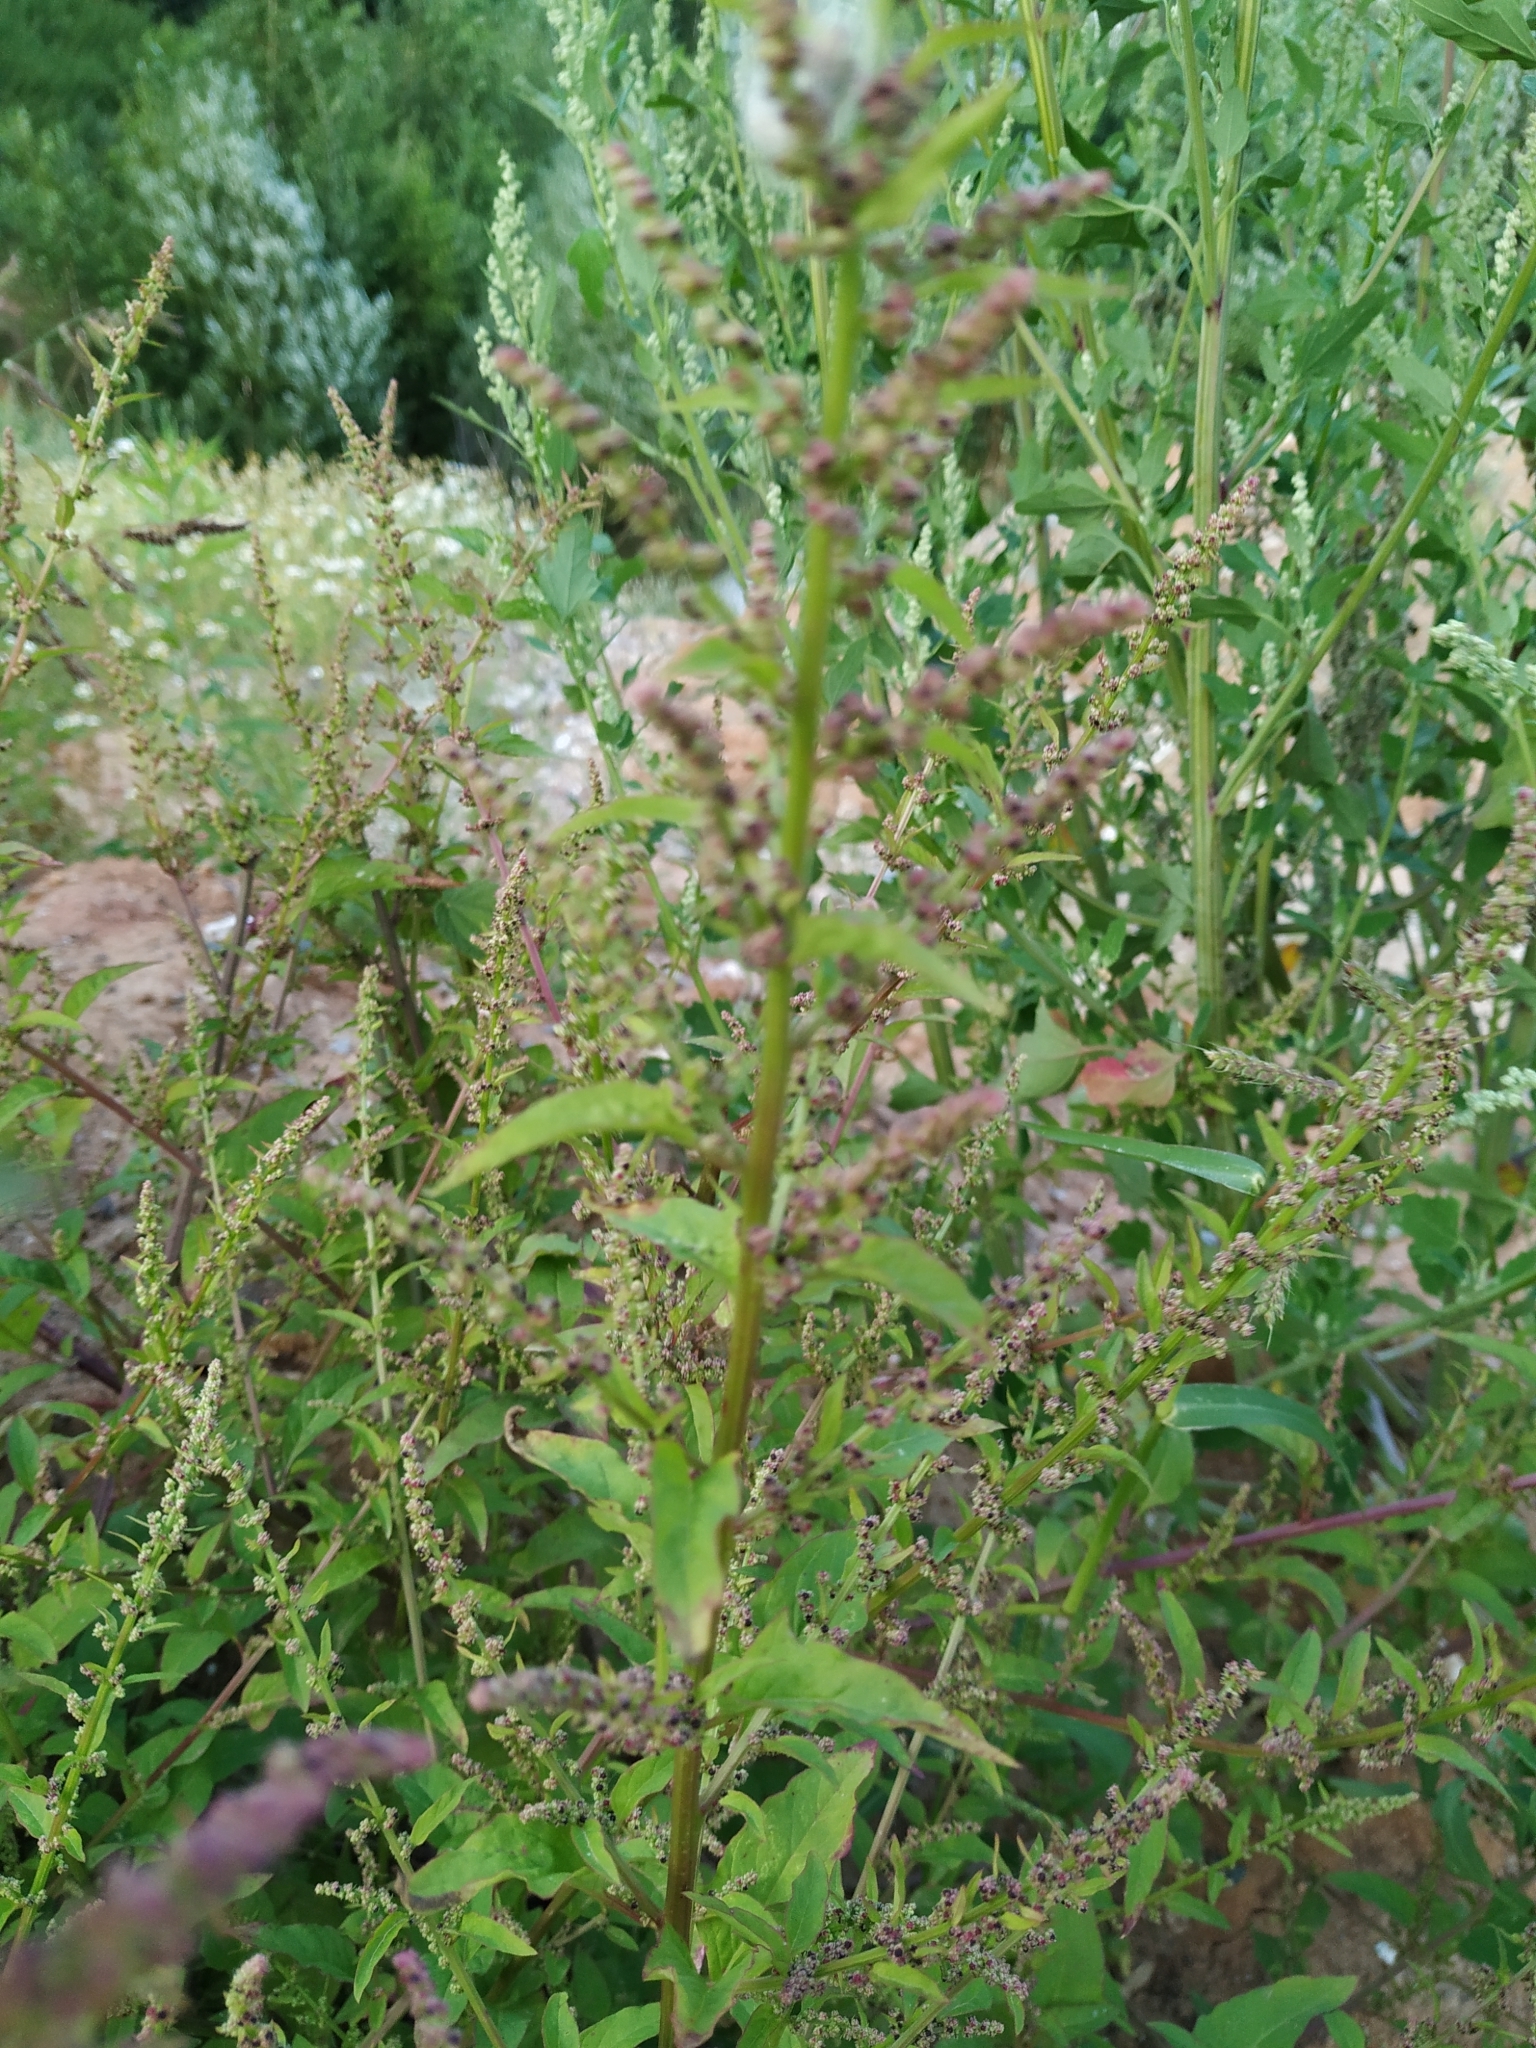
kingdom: Plantae
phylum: Tracheophyta
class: Magnoliopsida
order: Caryophyllales
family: Amaranthaceae
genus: Lipandra
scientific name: Lipandra polysperma
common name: Many-seed goosefoot
